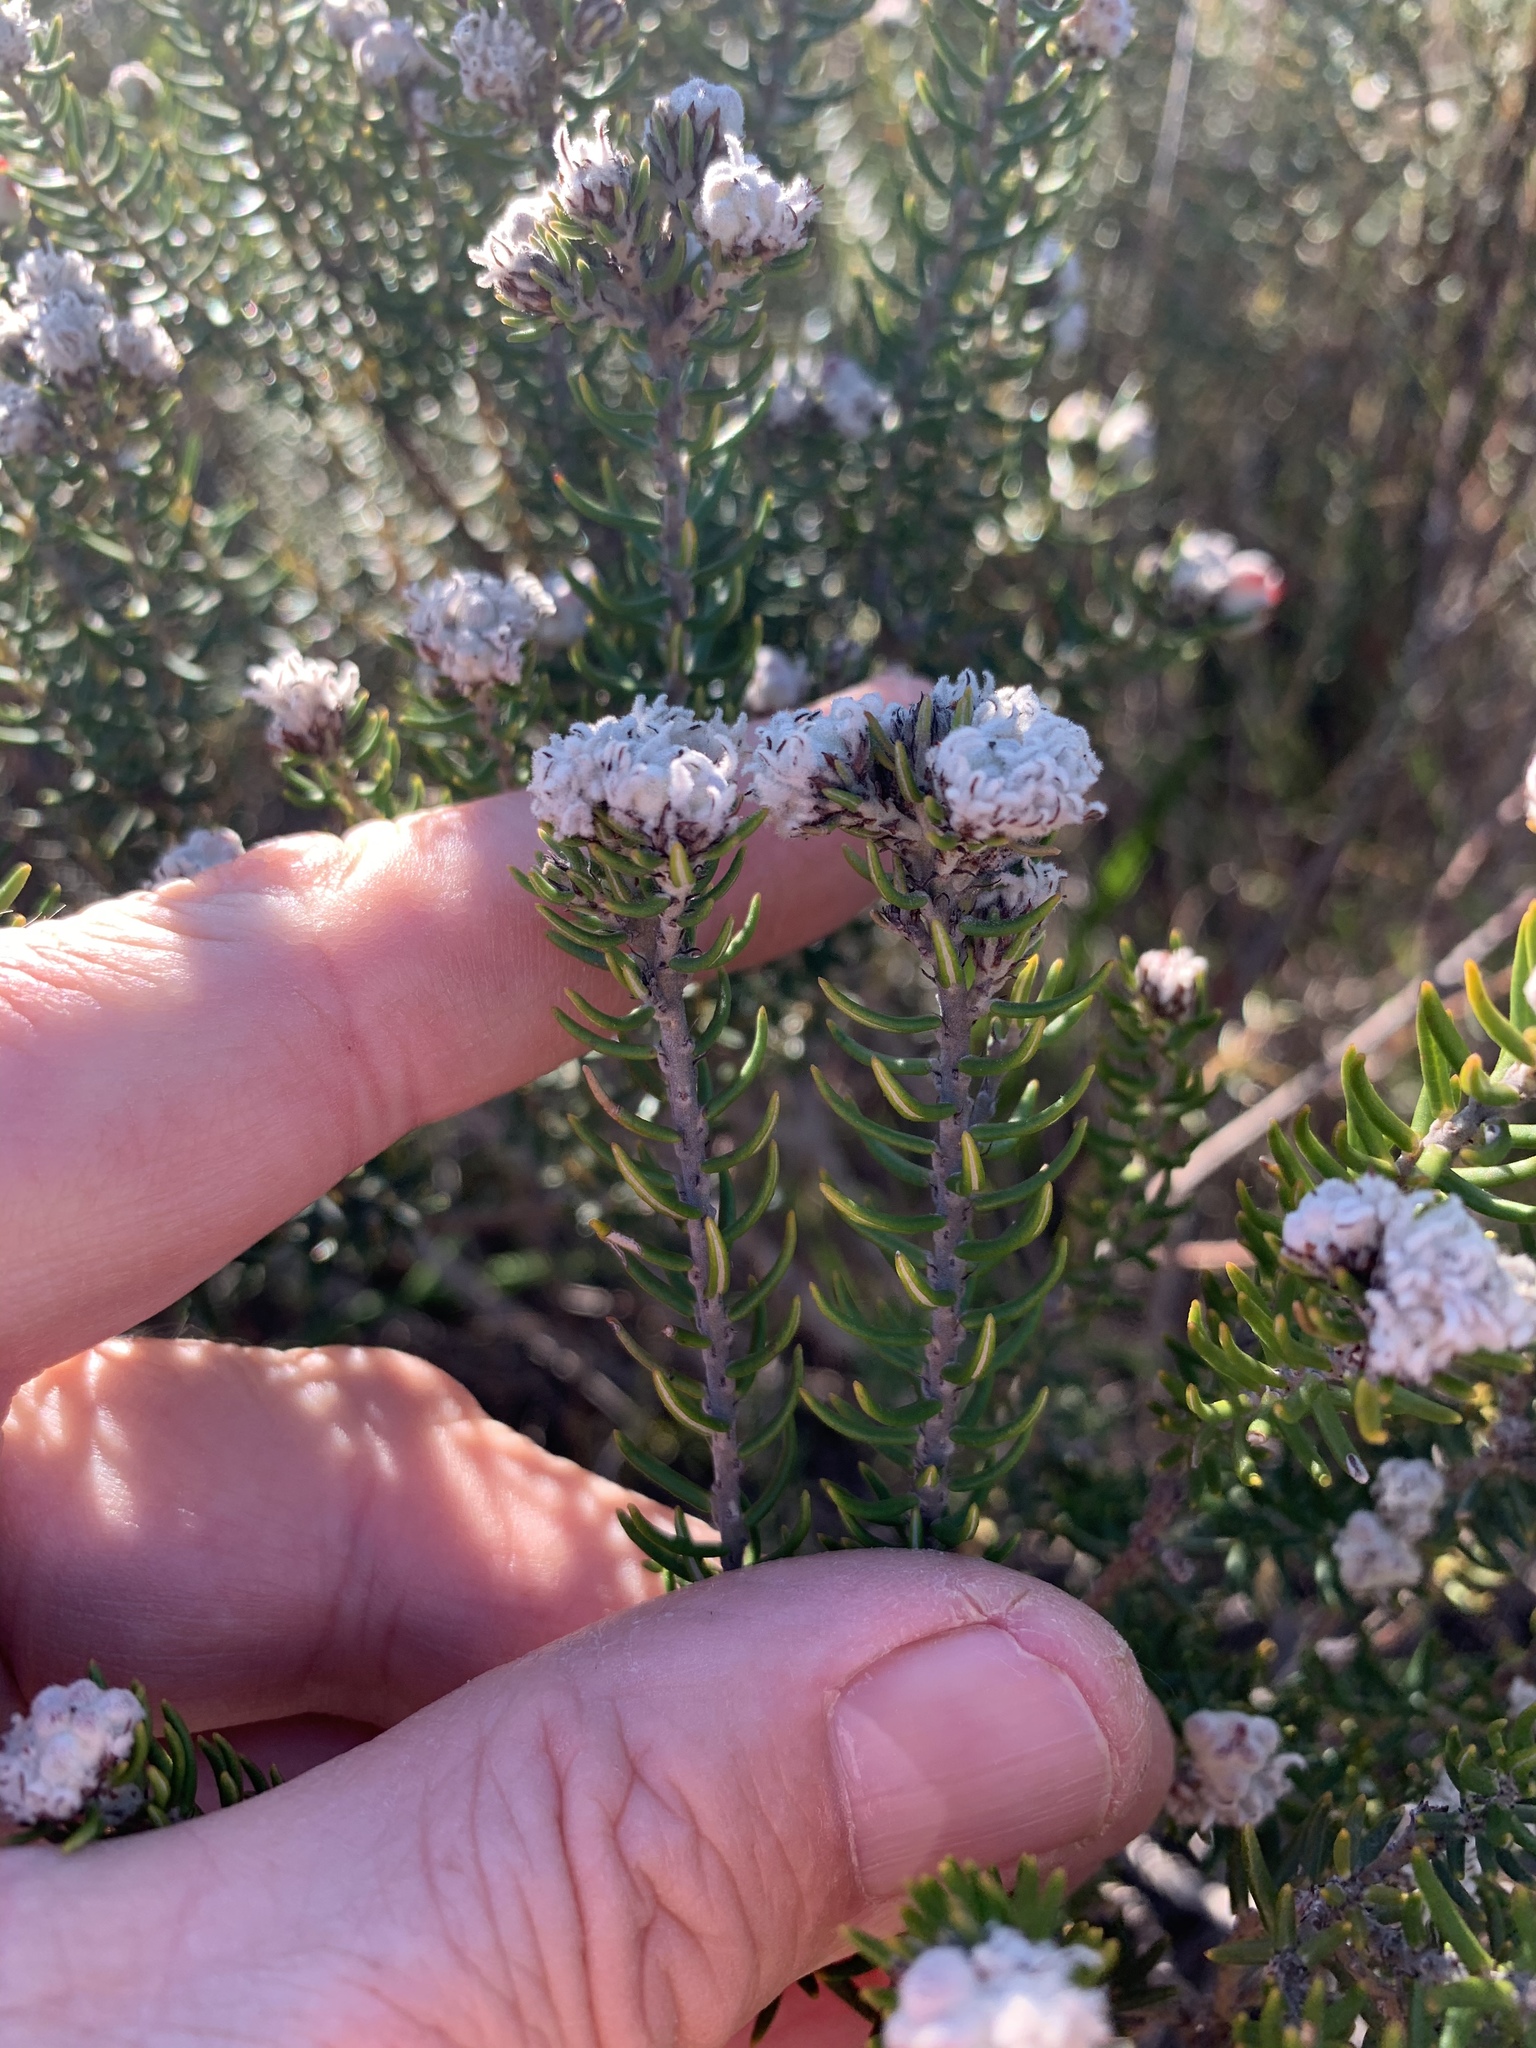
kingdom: Plantae
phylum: Tracheophyta
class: Magnoliopsida
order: Rosales
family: Rhamnaceae
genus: Trichocephalus
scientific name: Trichocephalus stipularis
